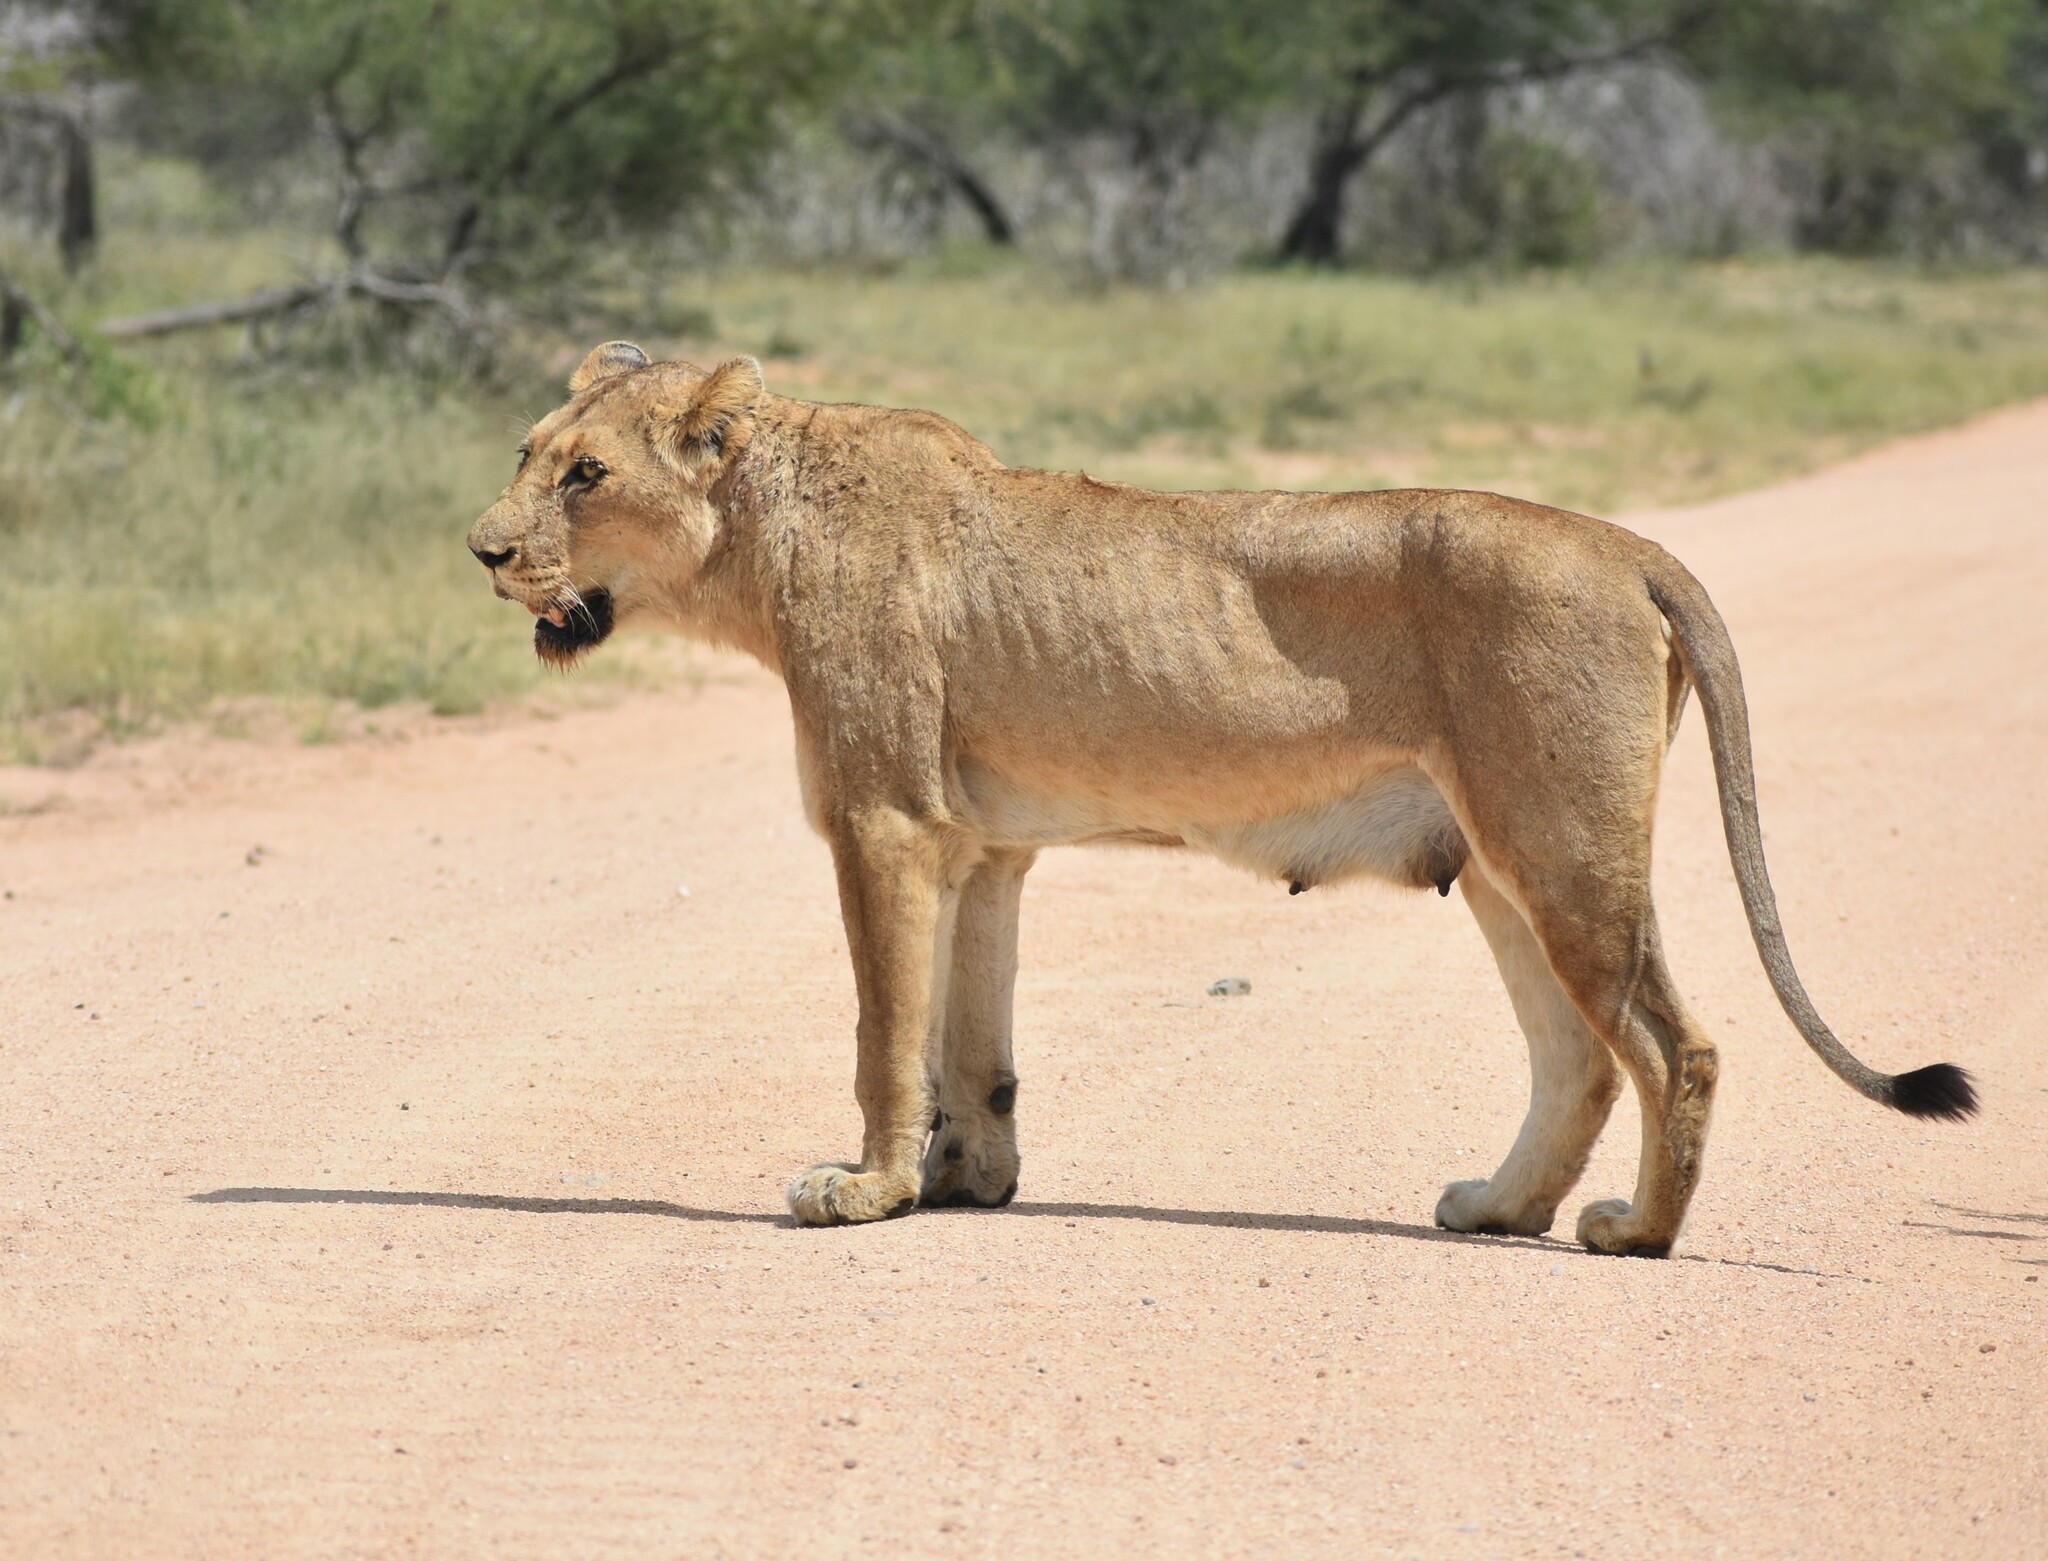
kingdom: Animalia
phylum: Chordata
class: Mammalia
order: Carnivora
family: Felidae
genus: Panthera
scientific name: Panthera leo
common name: Lion
